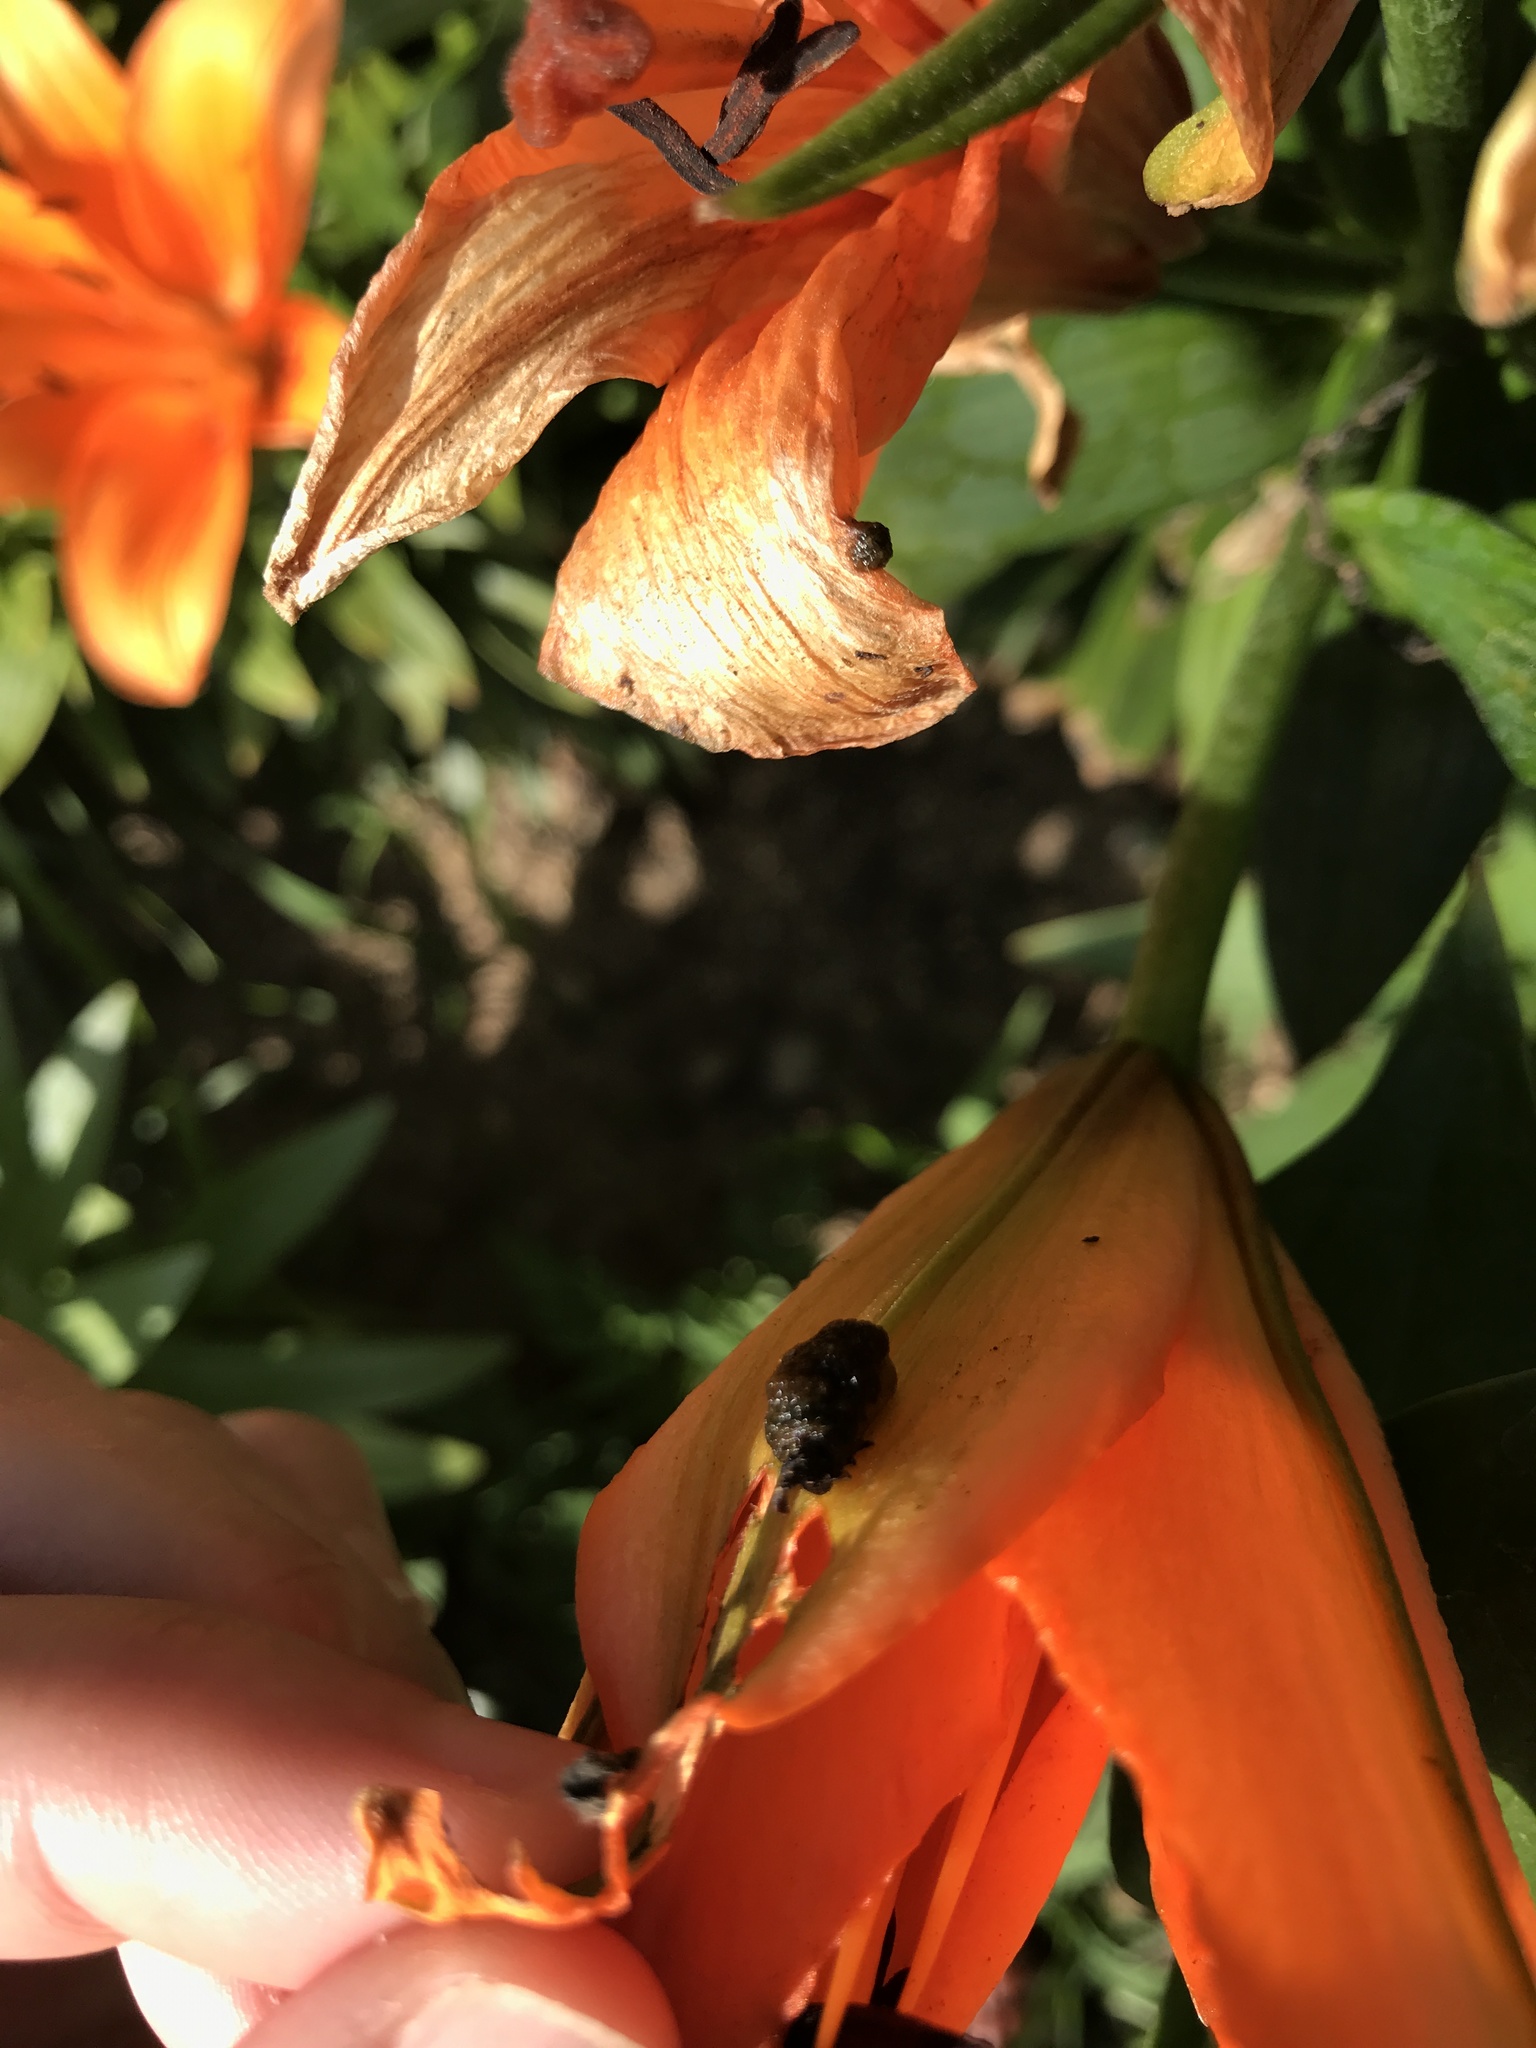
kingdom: Animalia
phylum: Arthropoda
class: Insecta
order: Coleoptera
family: Chrysomelidae
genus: Lilioceris
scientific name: Lilioceris lilii
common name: Lily beetle
